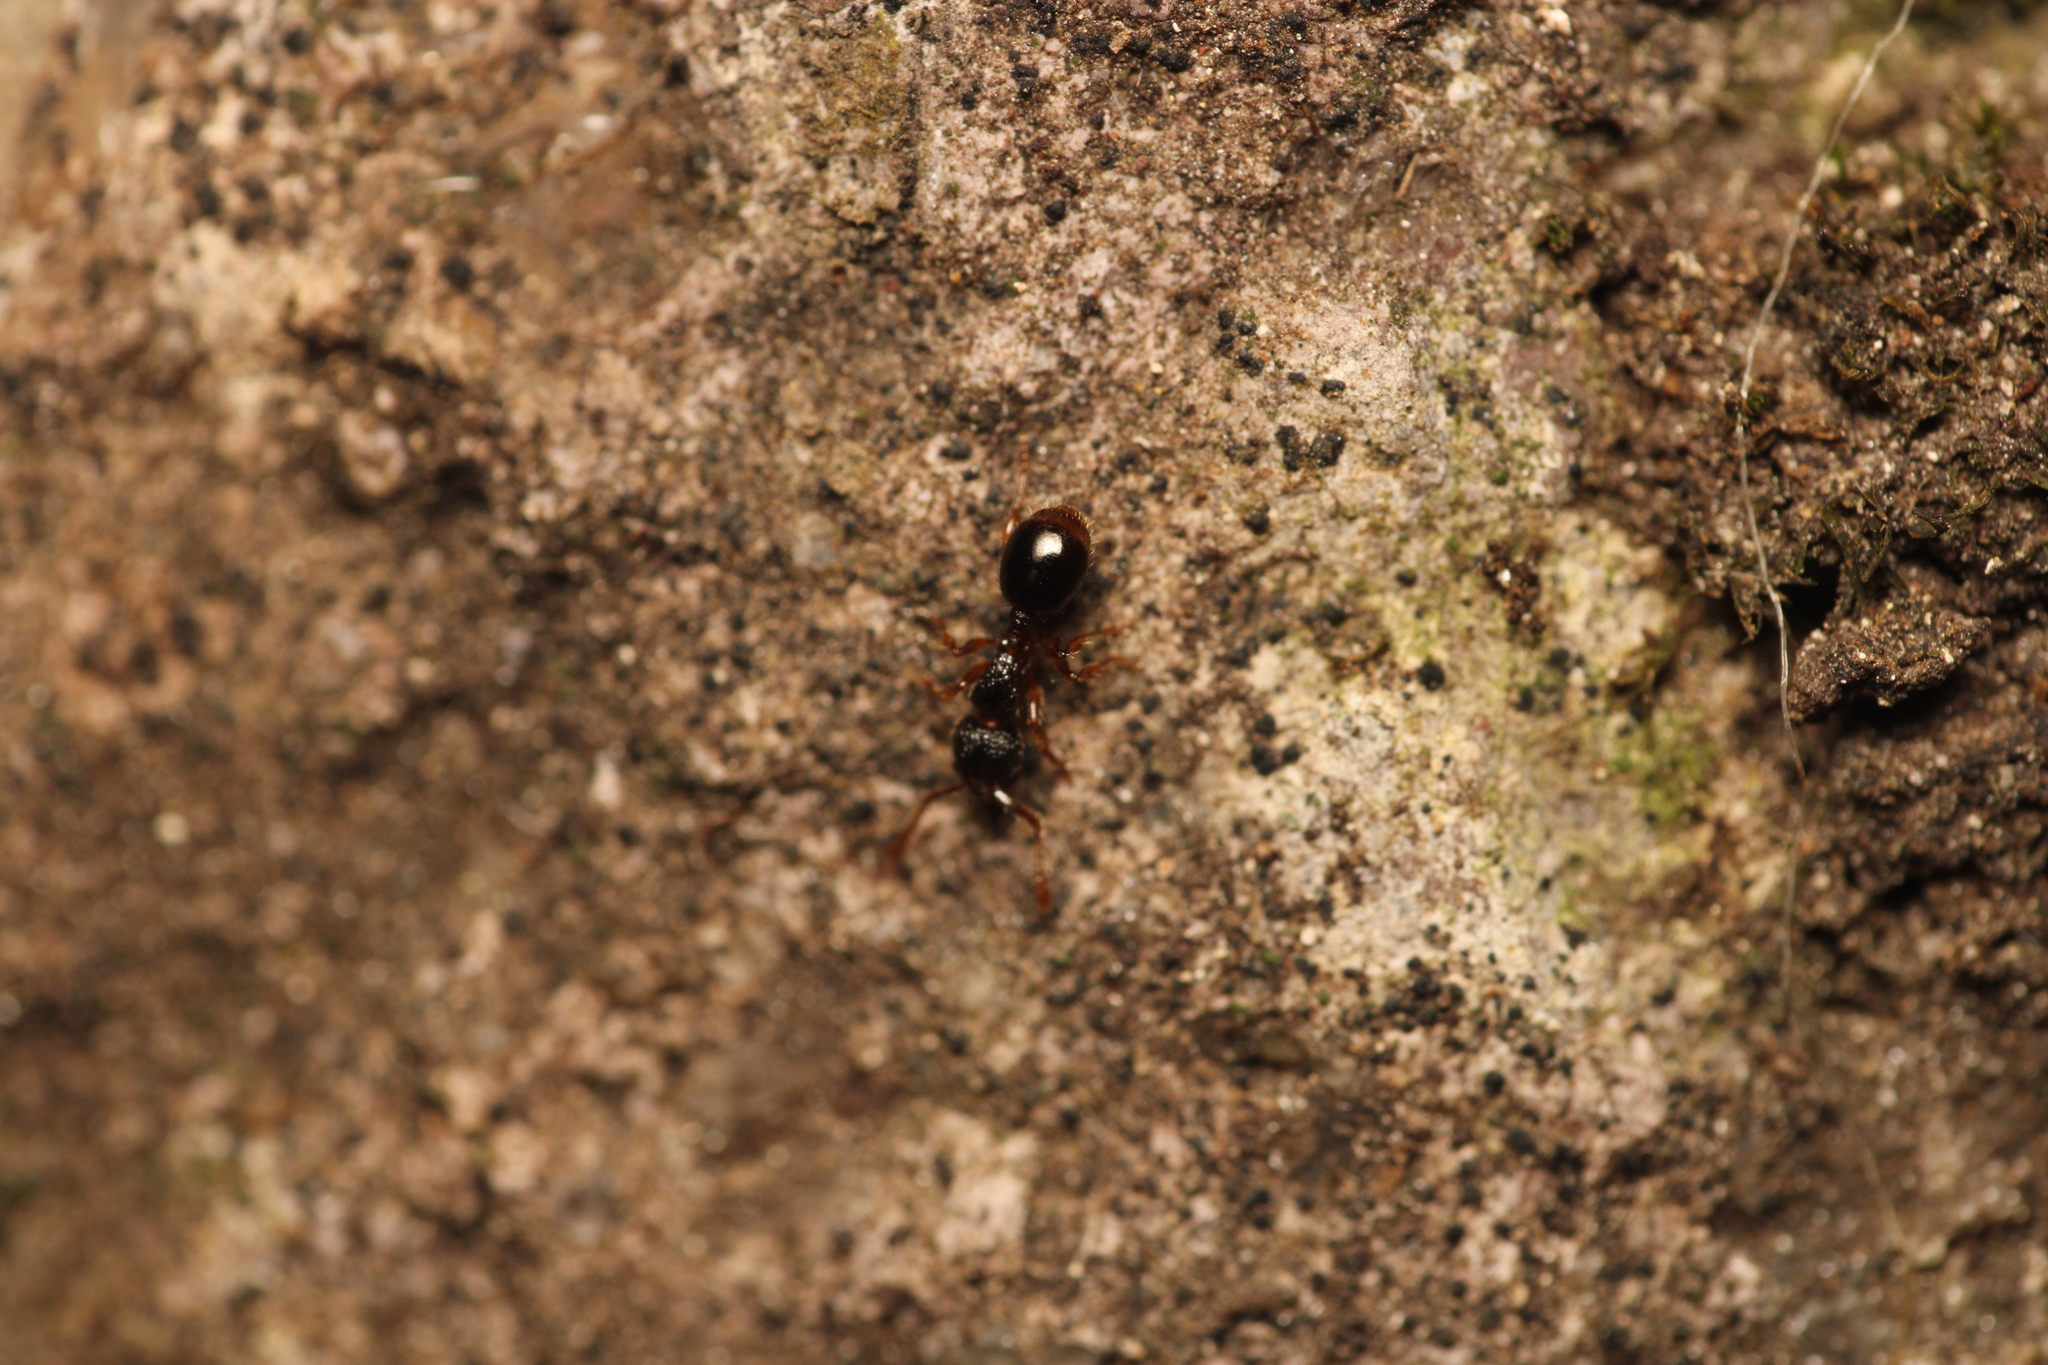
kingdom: Animalia
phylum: Arthropoda
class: Insecta
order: Hymenoptera
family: Formicidae
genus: Myrmecina
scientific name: Myrmecina graminicola
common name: Grass ant
